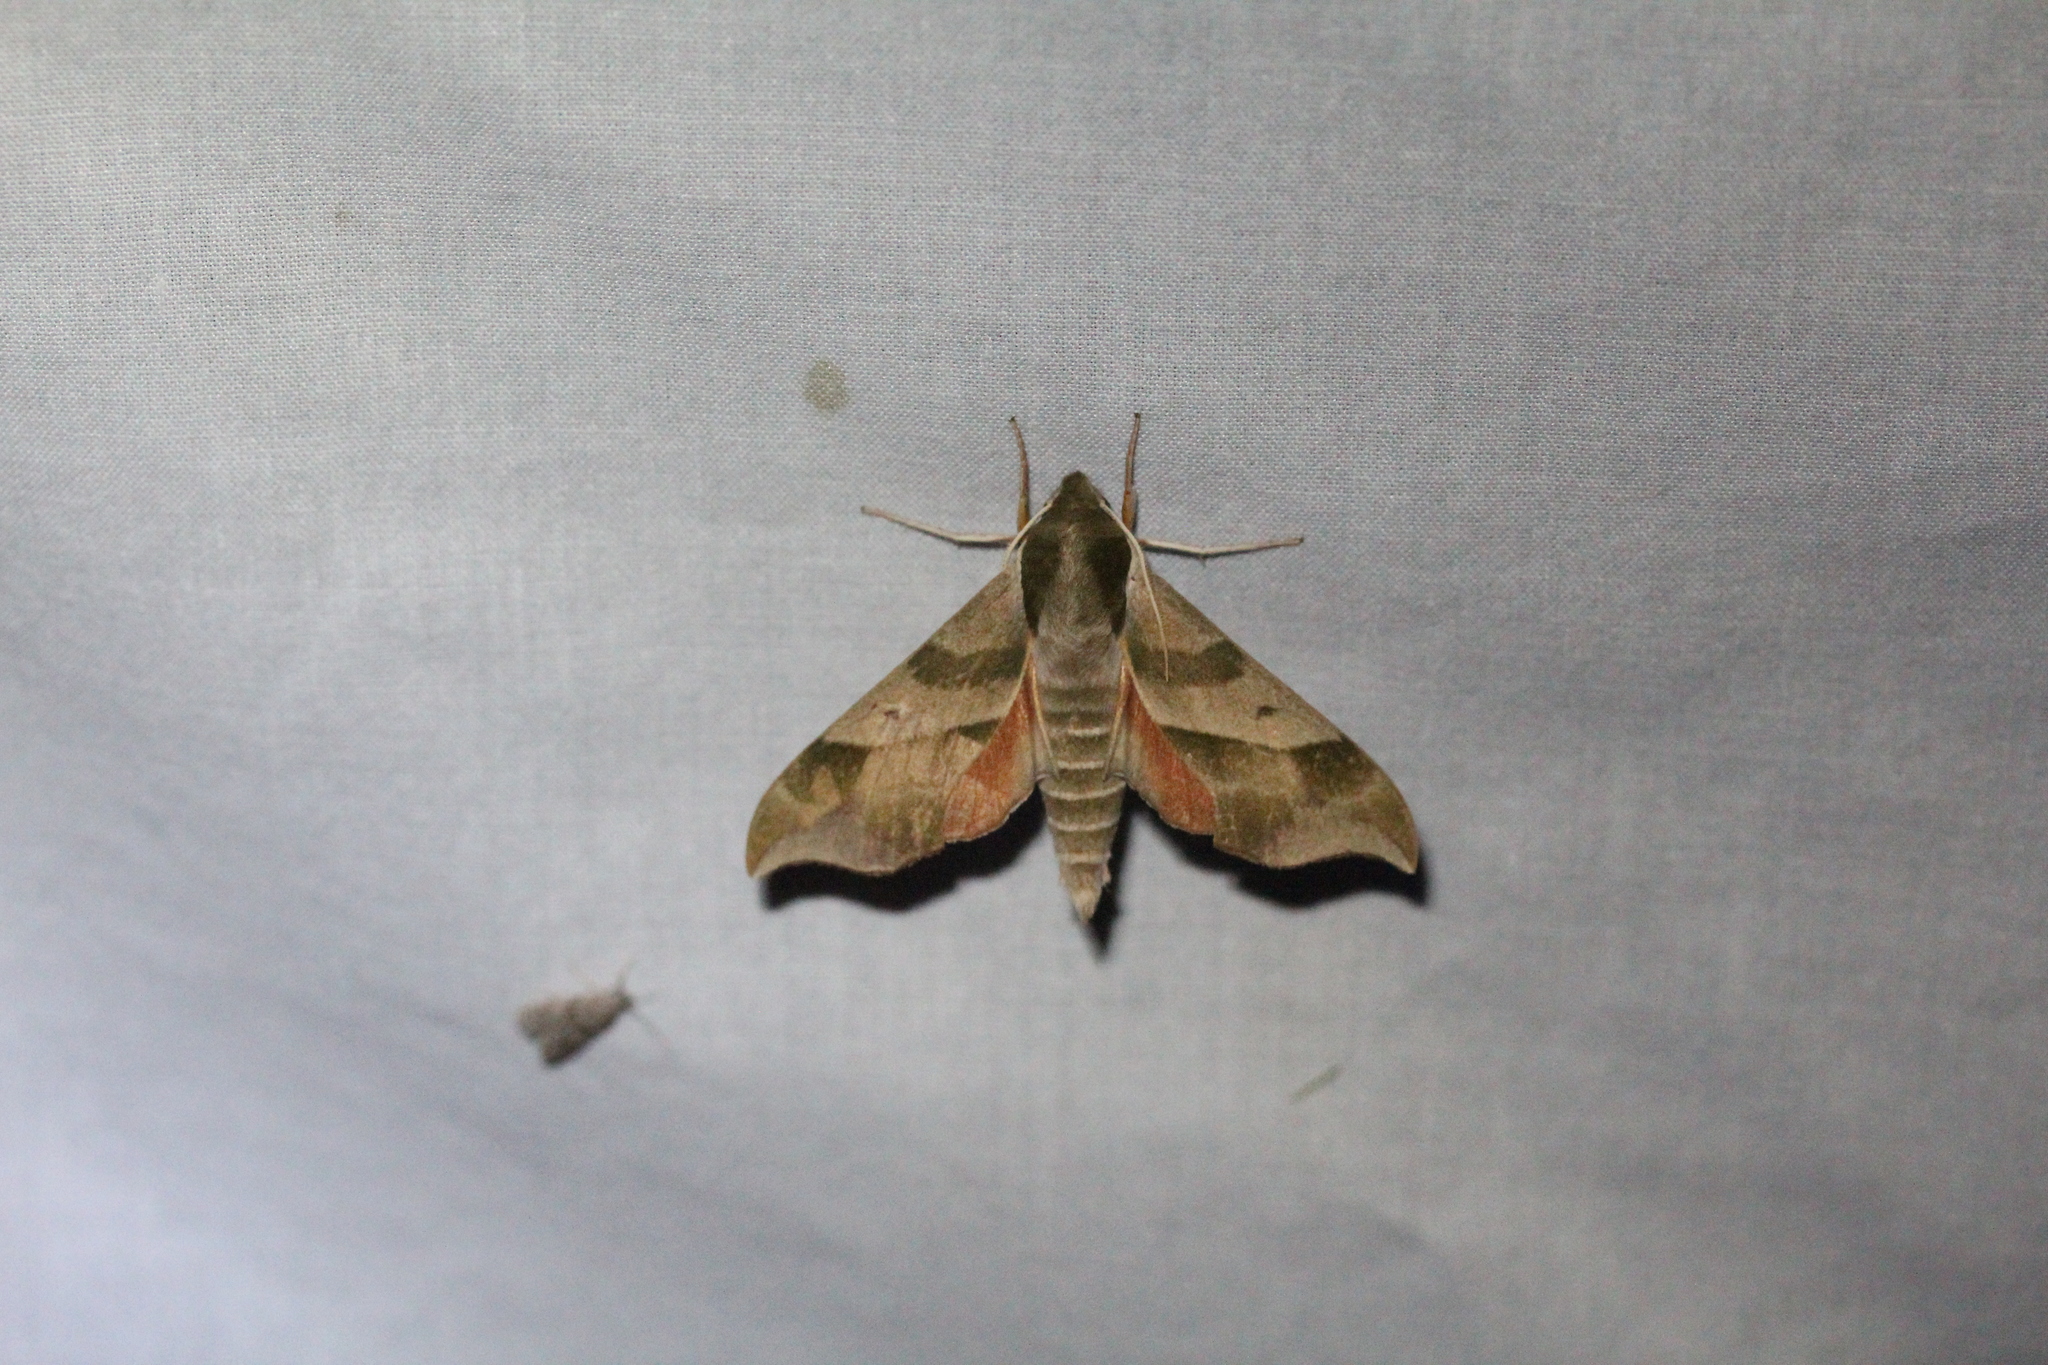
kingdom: Animalia
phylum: Arthropoda
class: Insecta
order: Lepidoptera
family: Sphingidae
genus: Darapsa
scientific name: Darapsa myron
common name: Hog sphinx
